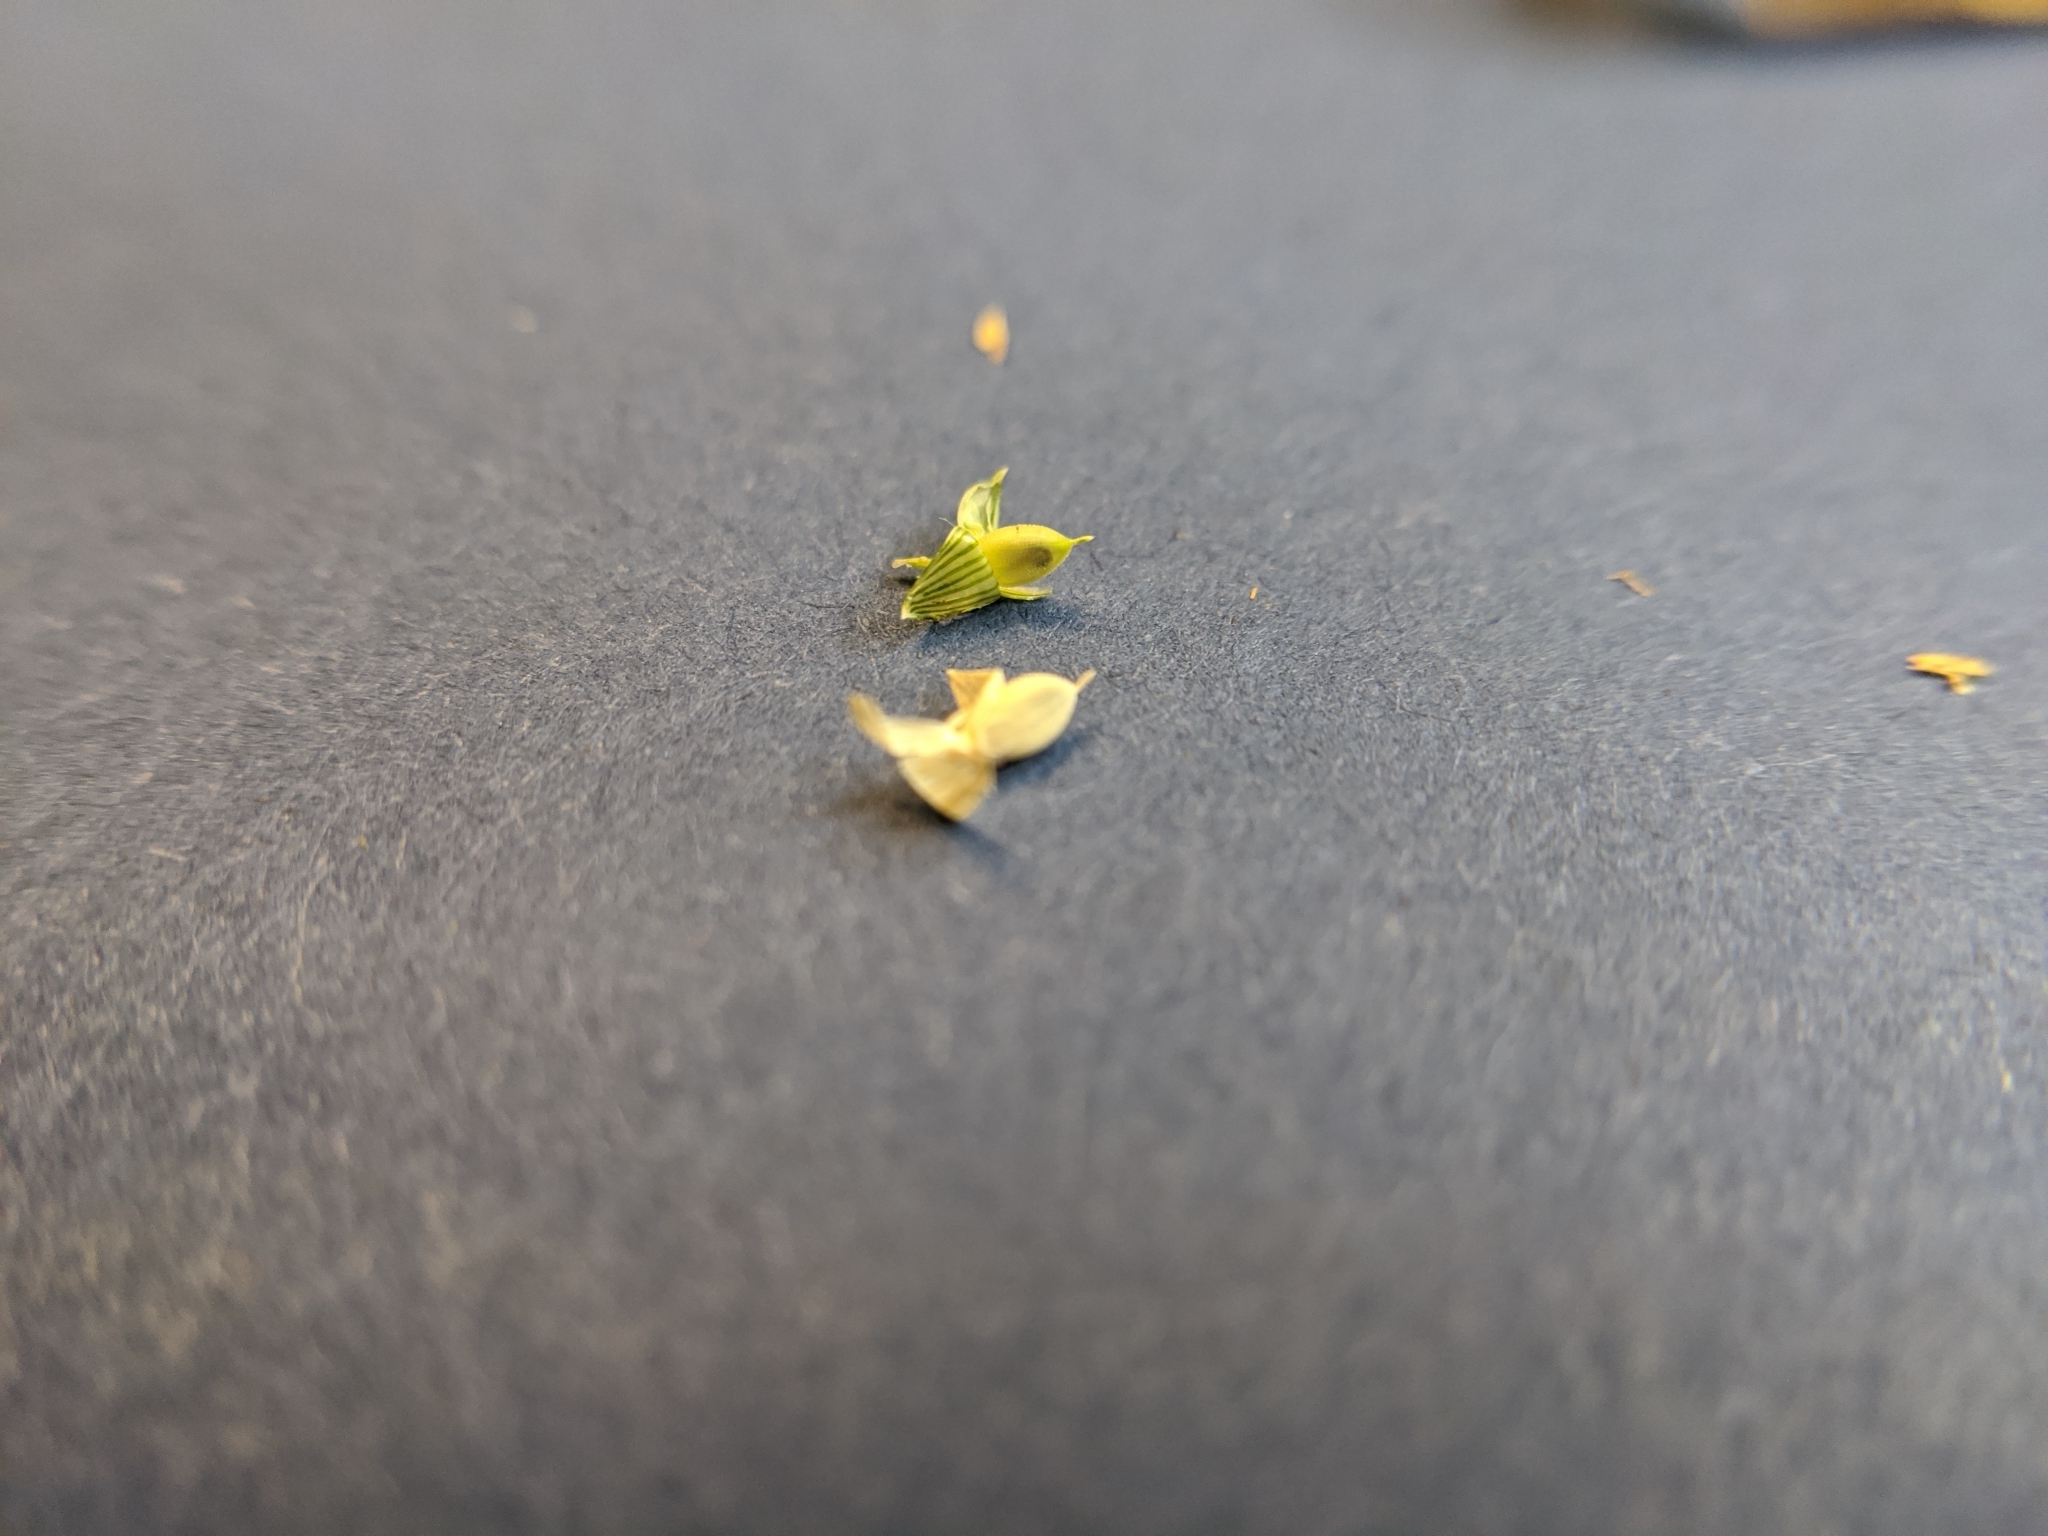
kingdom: Plantae
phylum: Tracheophyta
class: Liliopsida
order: Poales
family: Poaceae
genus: Urochloa
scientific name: Urochloa panicoides
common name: Sharp-flowered signal-grass
